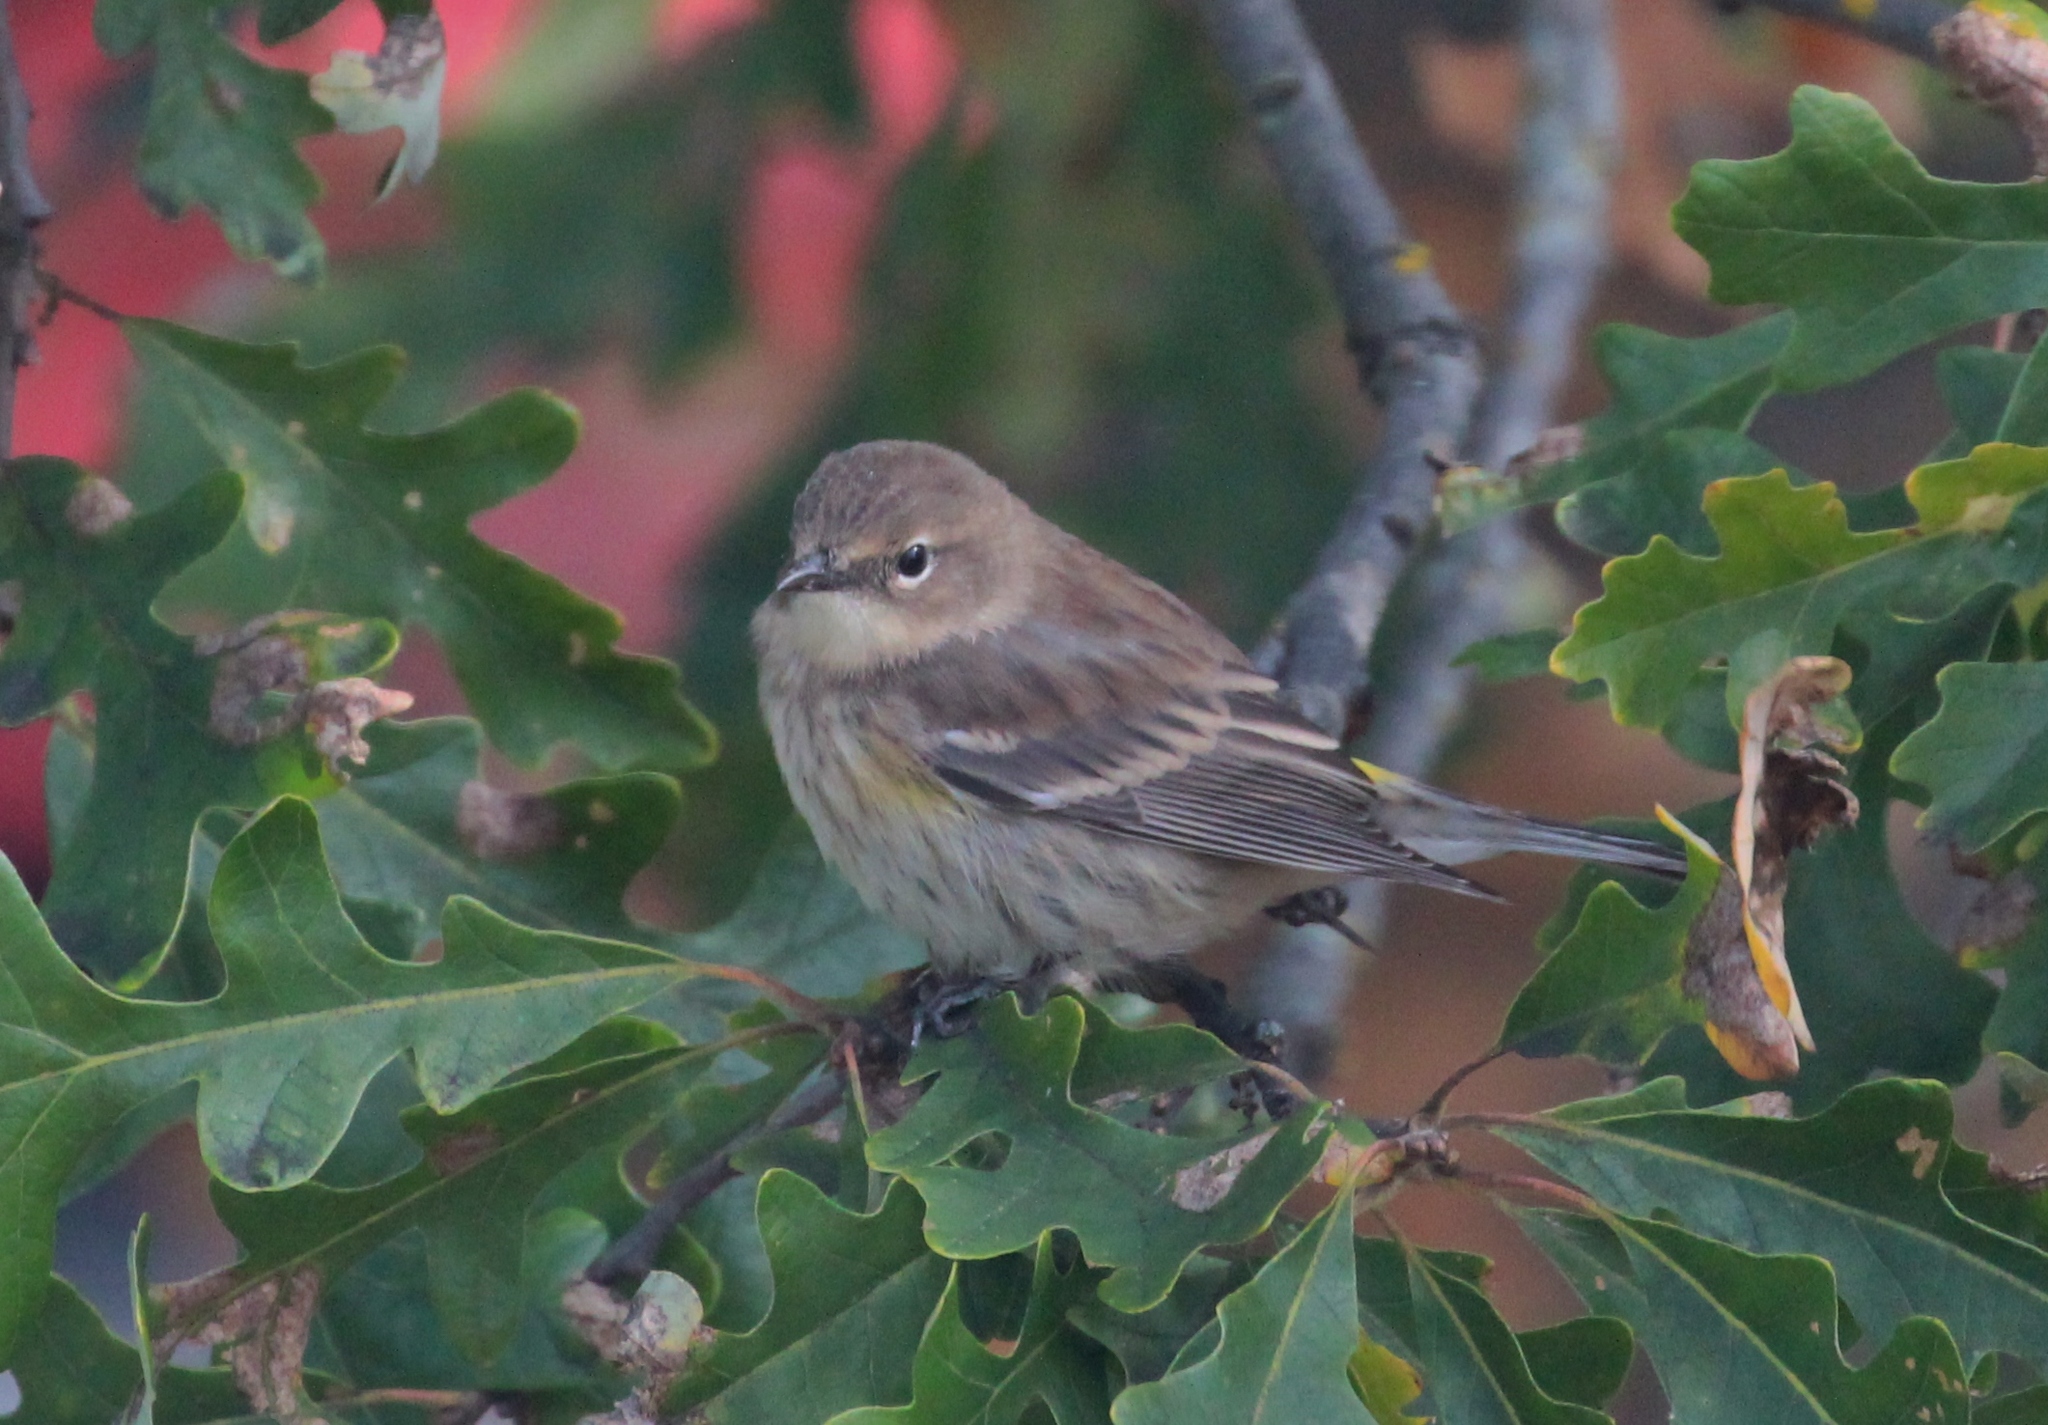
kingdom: Animalia
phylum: Chordata
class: Aves
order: Passeriformes
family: Parulidae
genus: Setophaga
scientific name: Setophaga coronata
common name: Myrtle warbler
